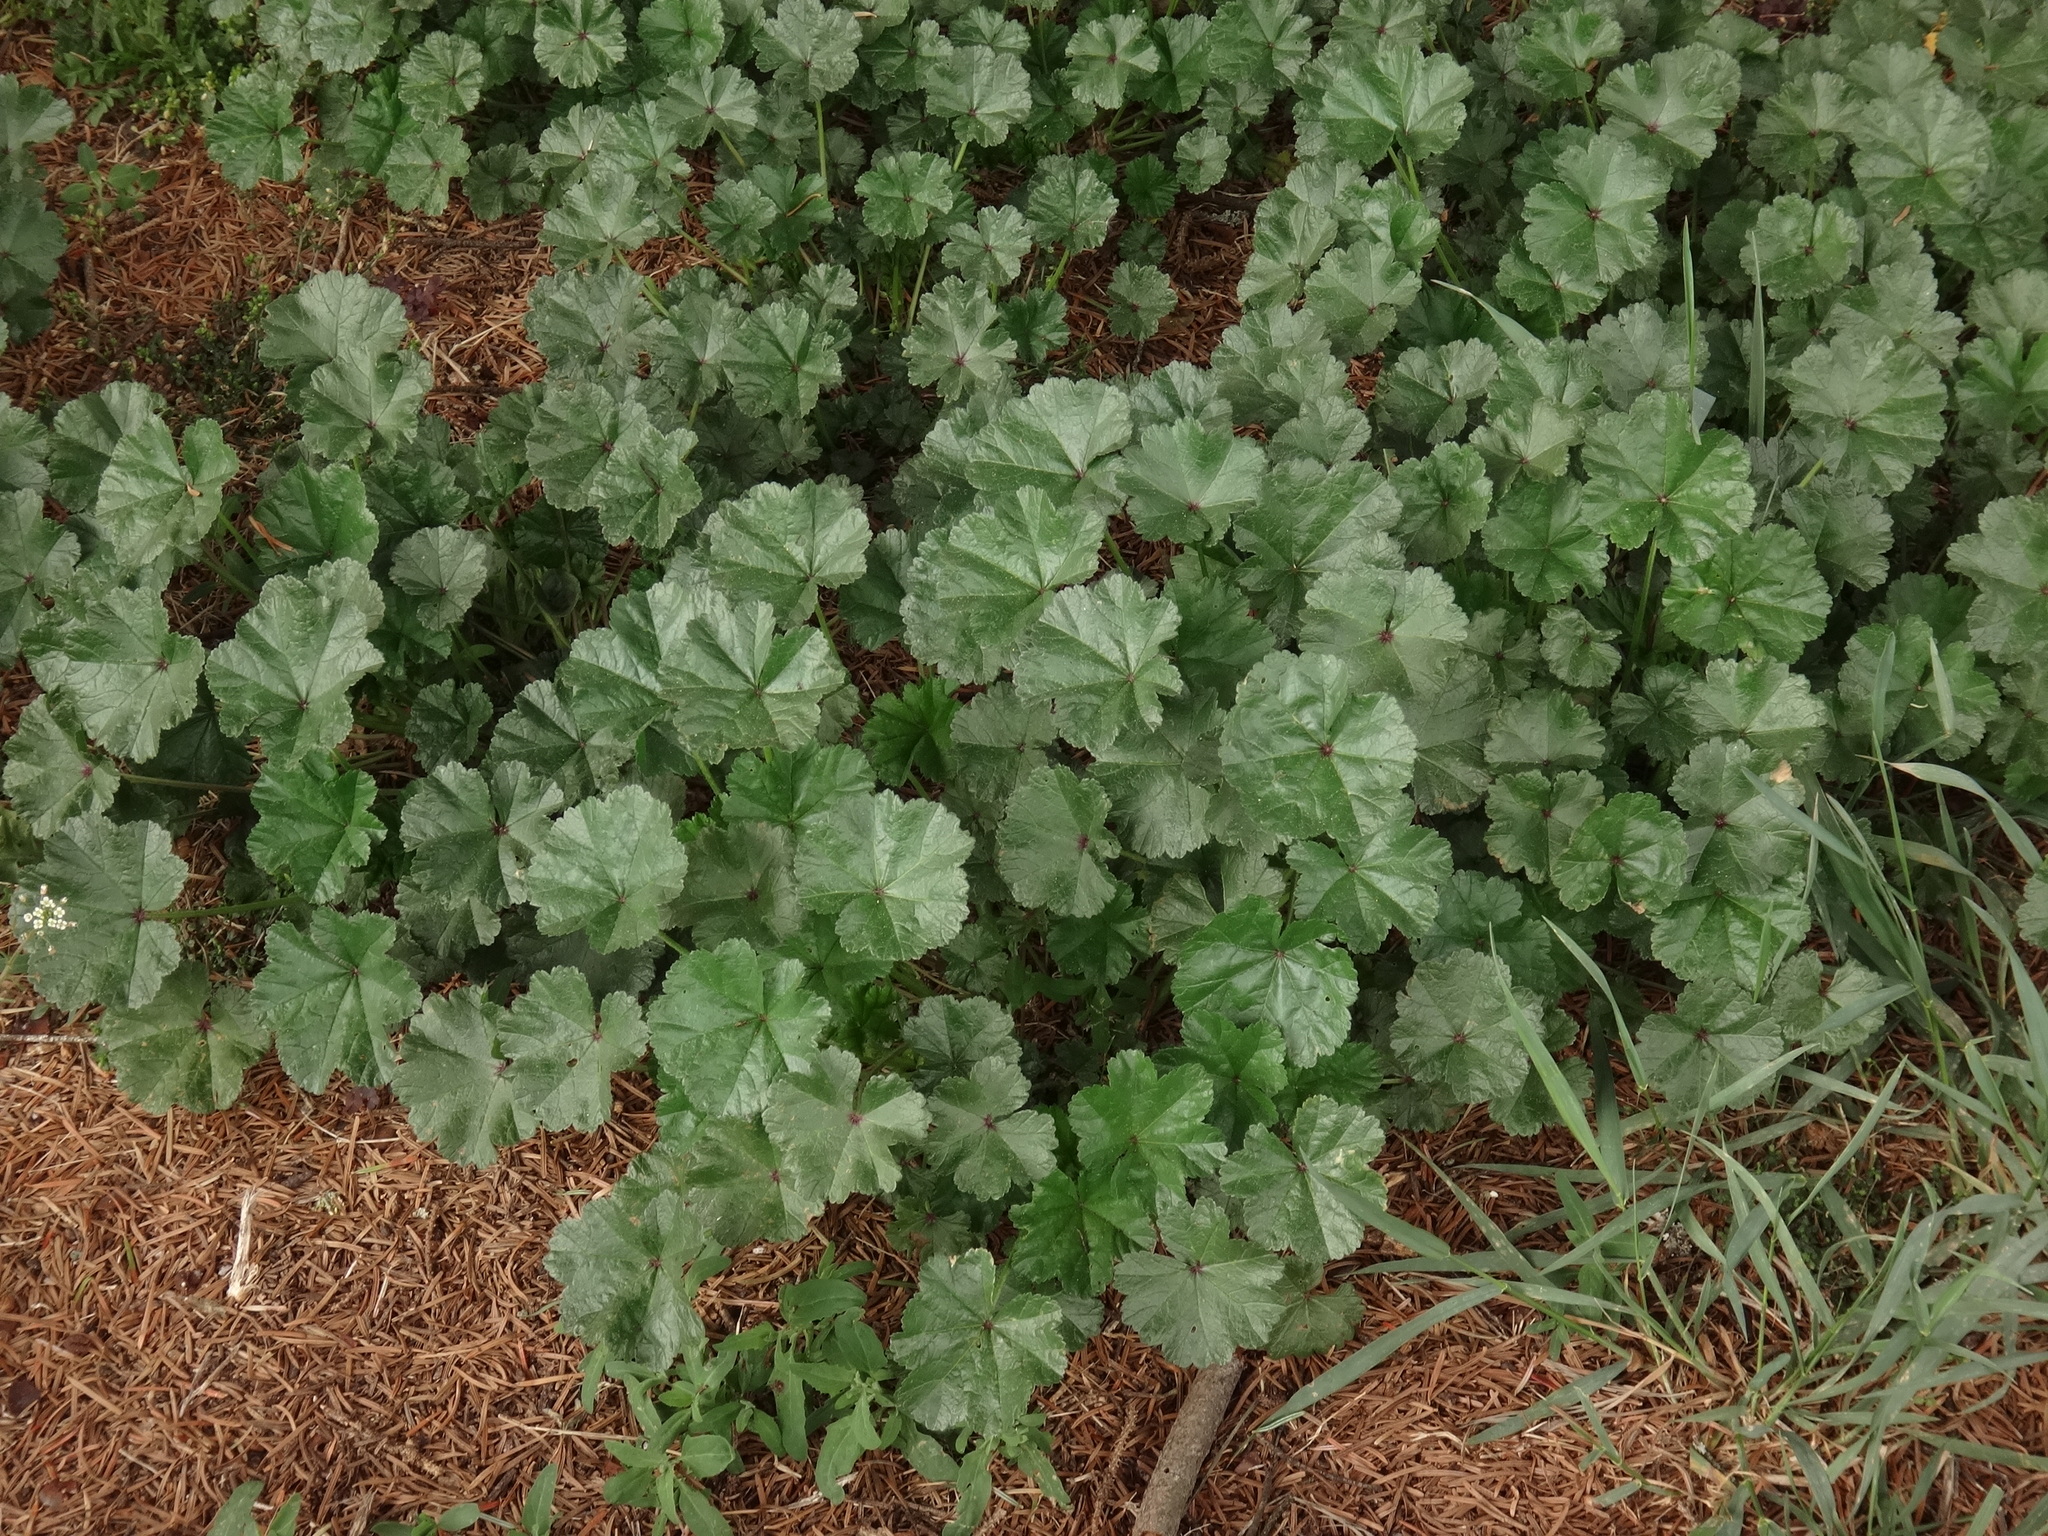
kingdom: Plantae
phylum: Tracheophyta
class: Magnoliopsida
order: Malvales
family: Malvaceae
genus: Malva
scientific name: Malva sylvestris
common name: Common mallow
